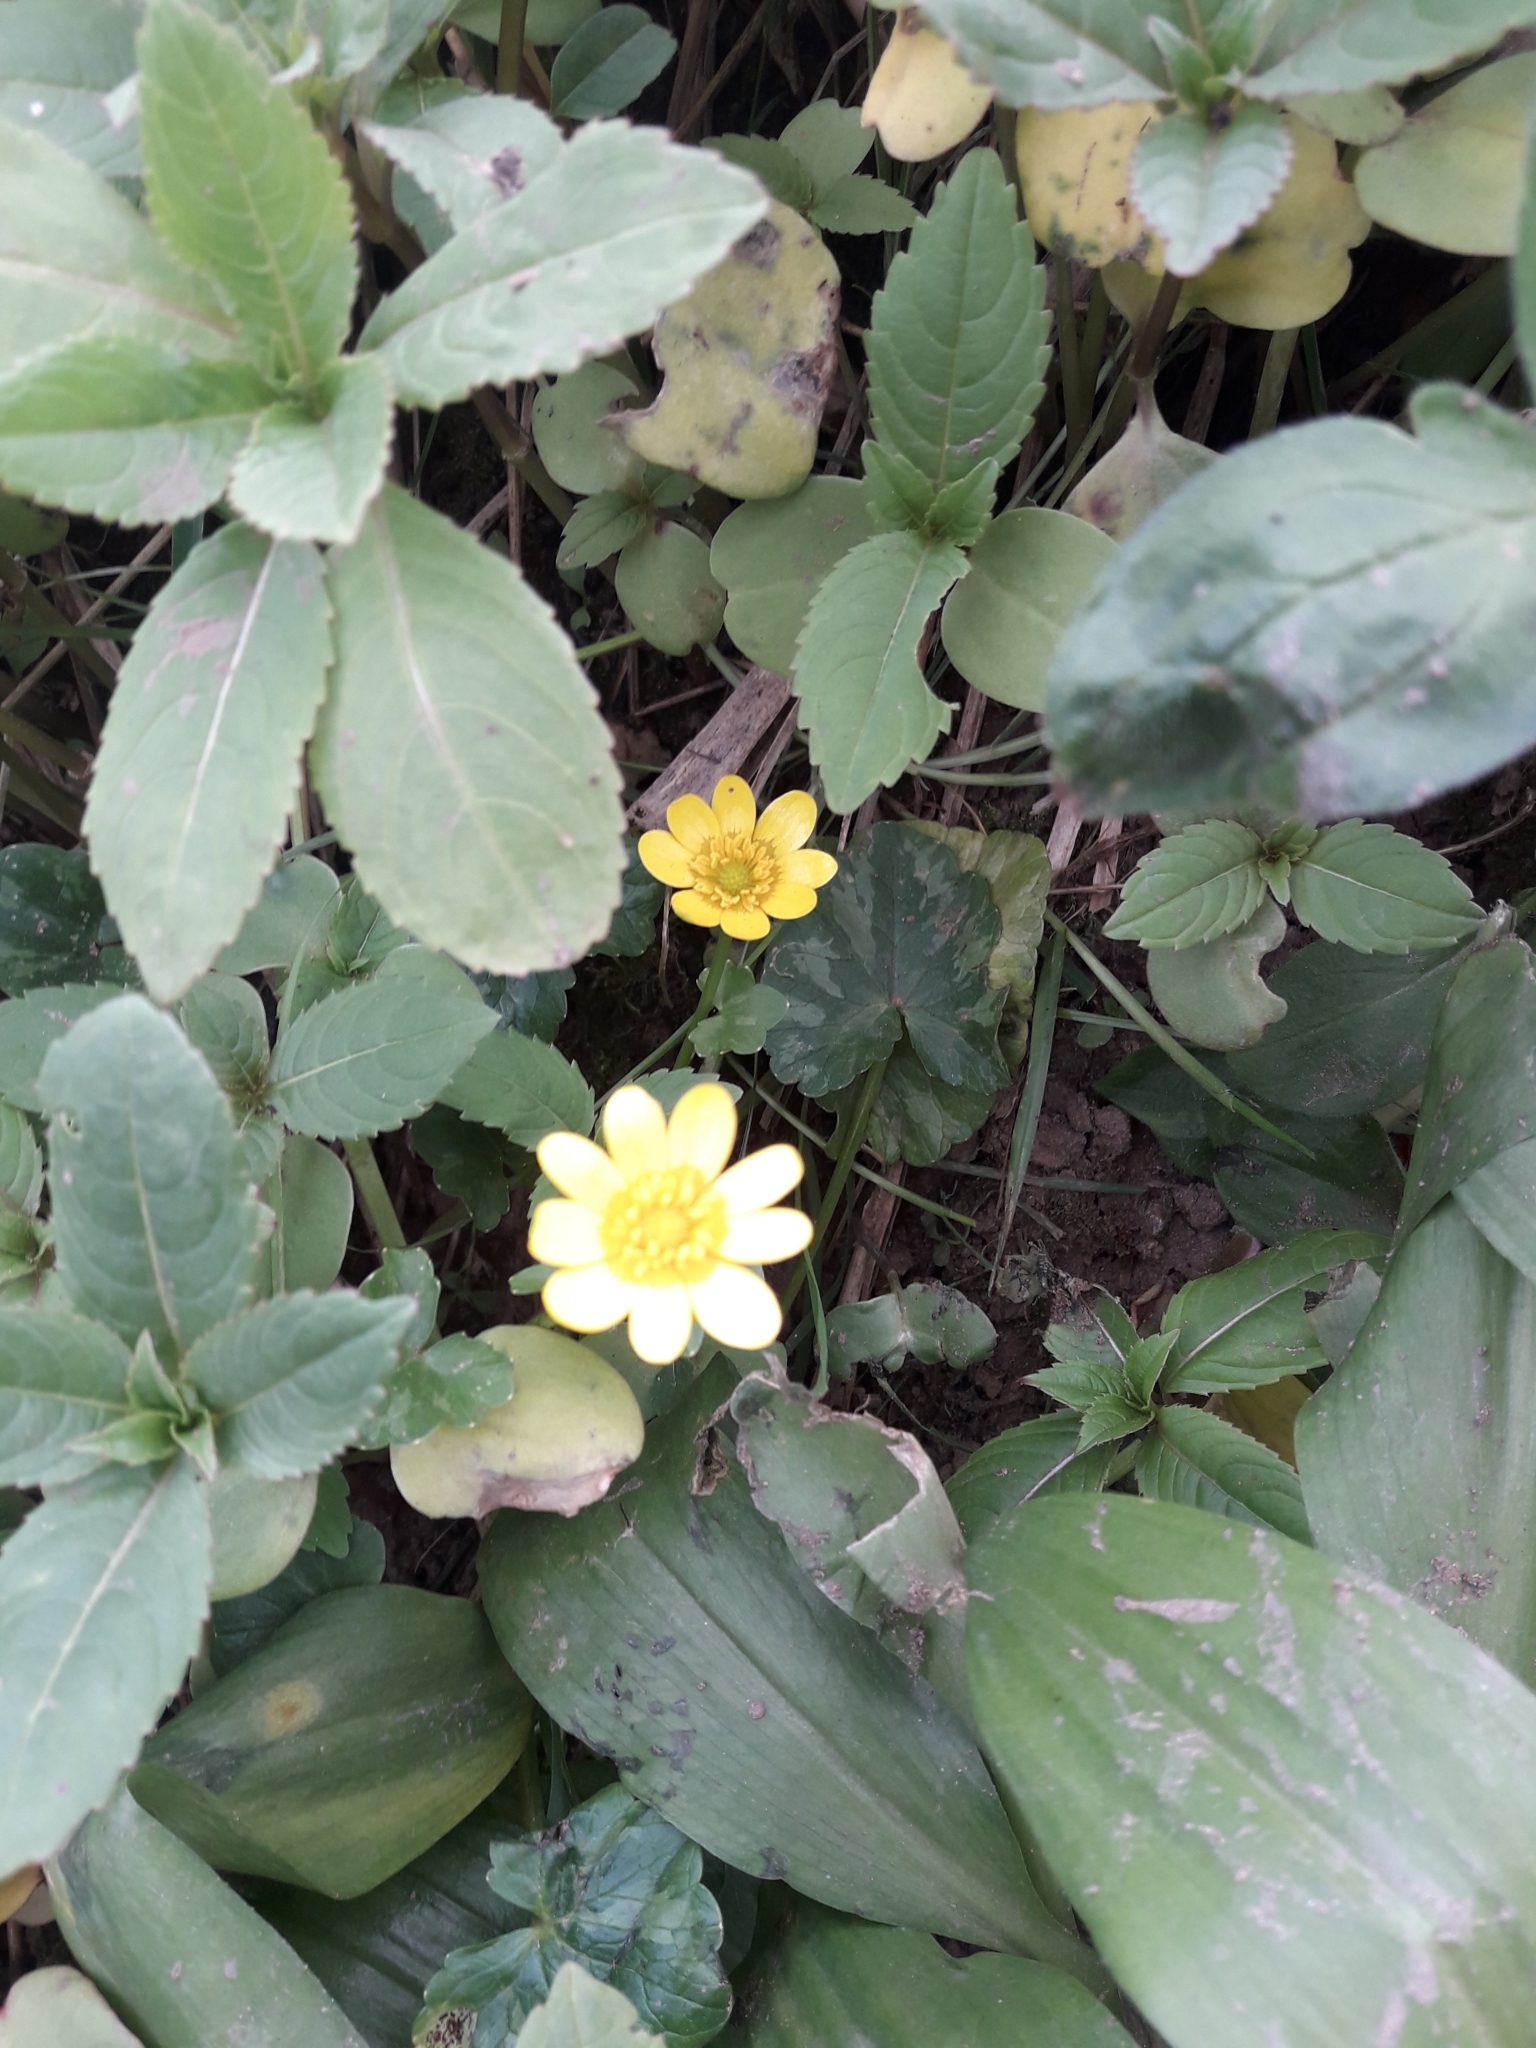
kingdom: Plantae
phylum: Tracheophyta
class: Magnoliopsida
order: Ranunculales
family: Ranunculaceae
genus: Ficaria
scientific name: Ficaria verna
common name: Lesser celandine
